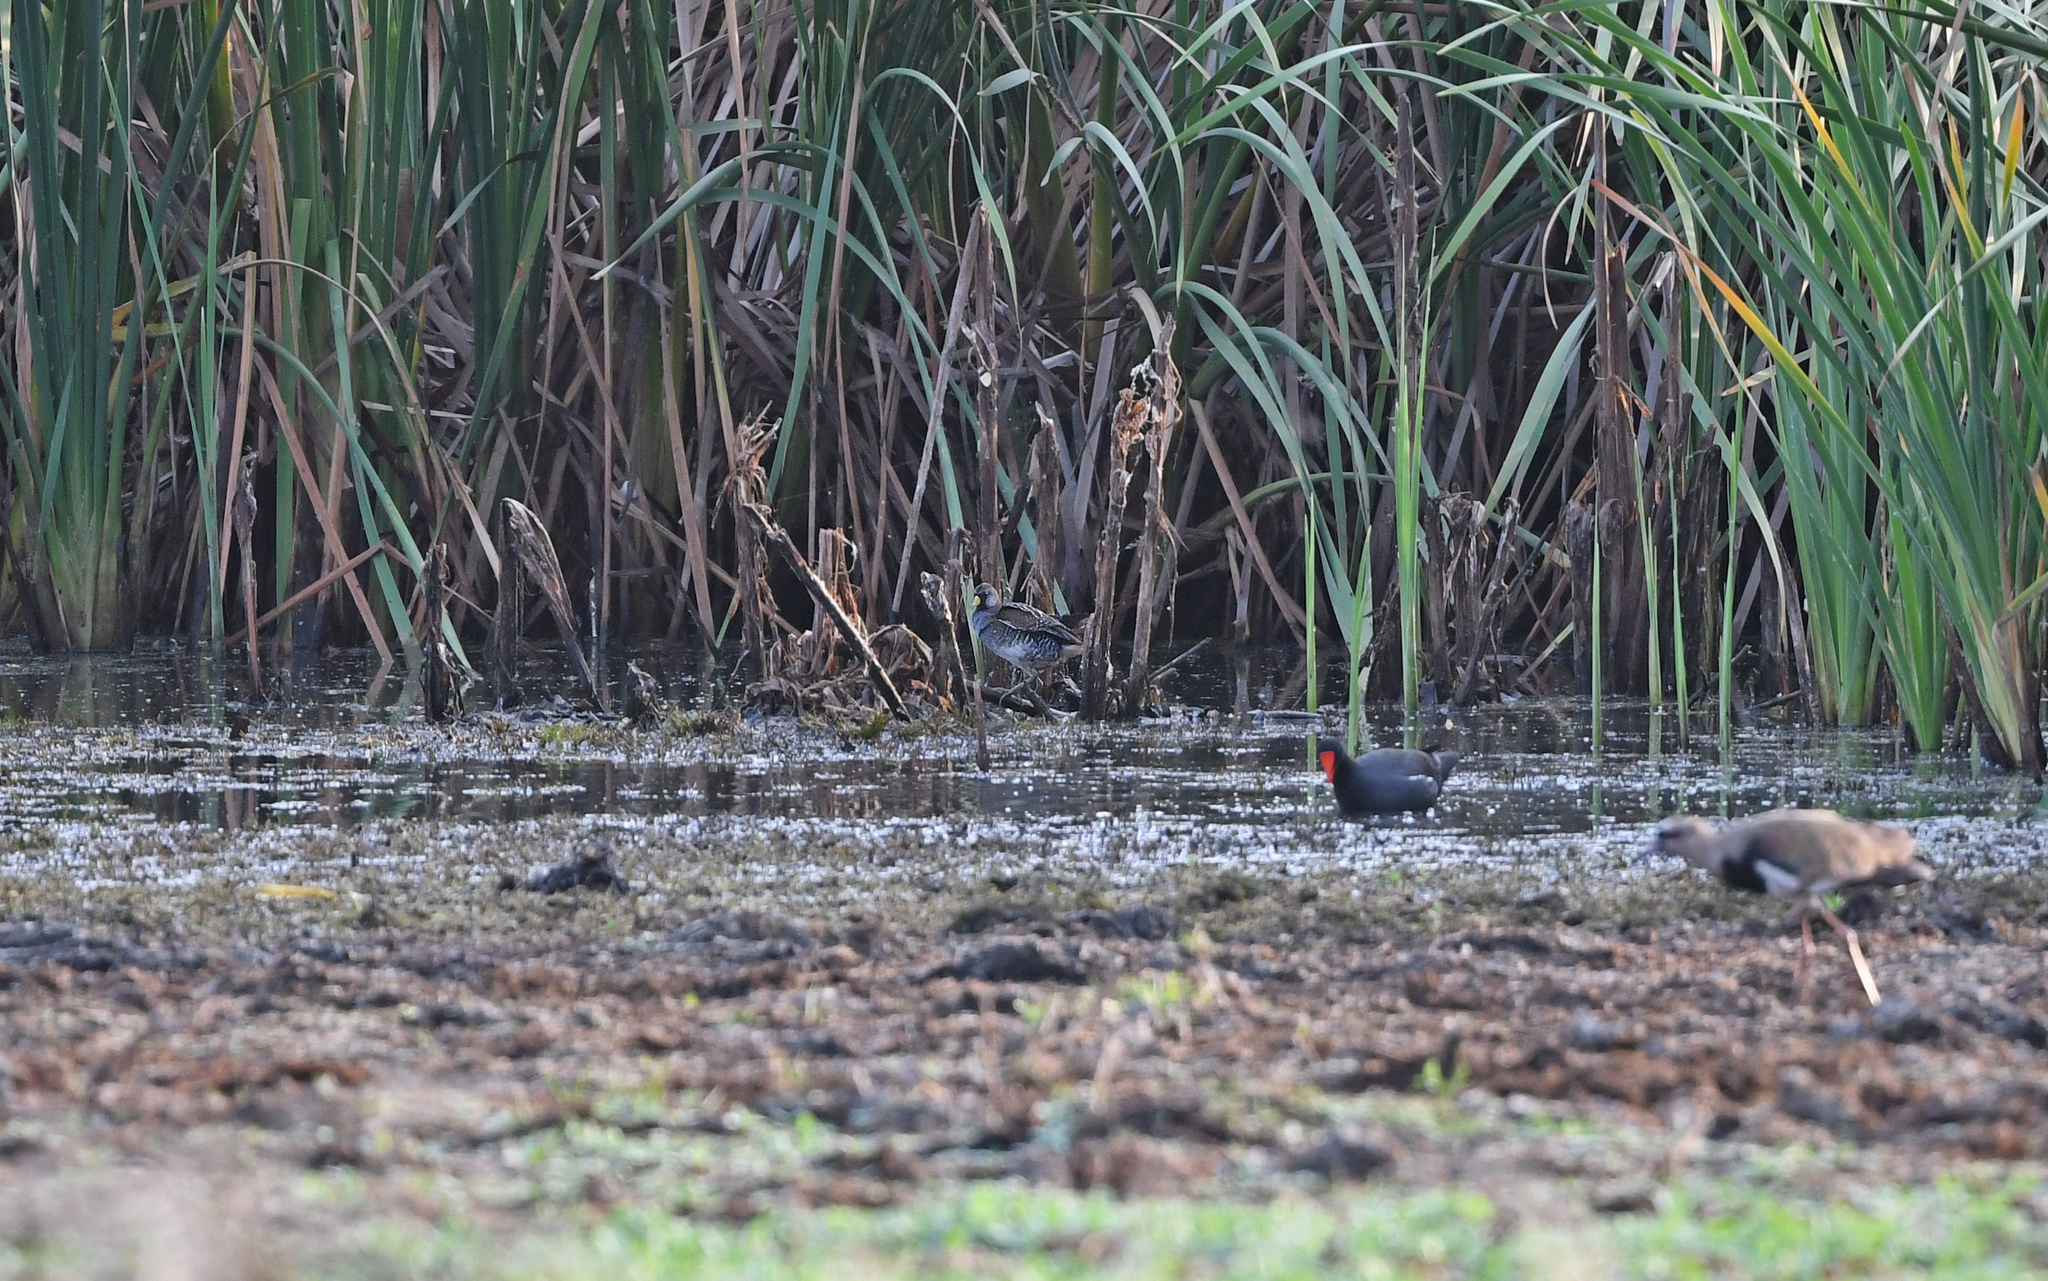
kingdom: Animalia
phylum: Chordata
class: Aves
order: Gruiformes
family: Rallidae
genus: Porzana
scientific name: Porzana carolina
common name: Sora
